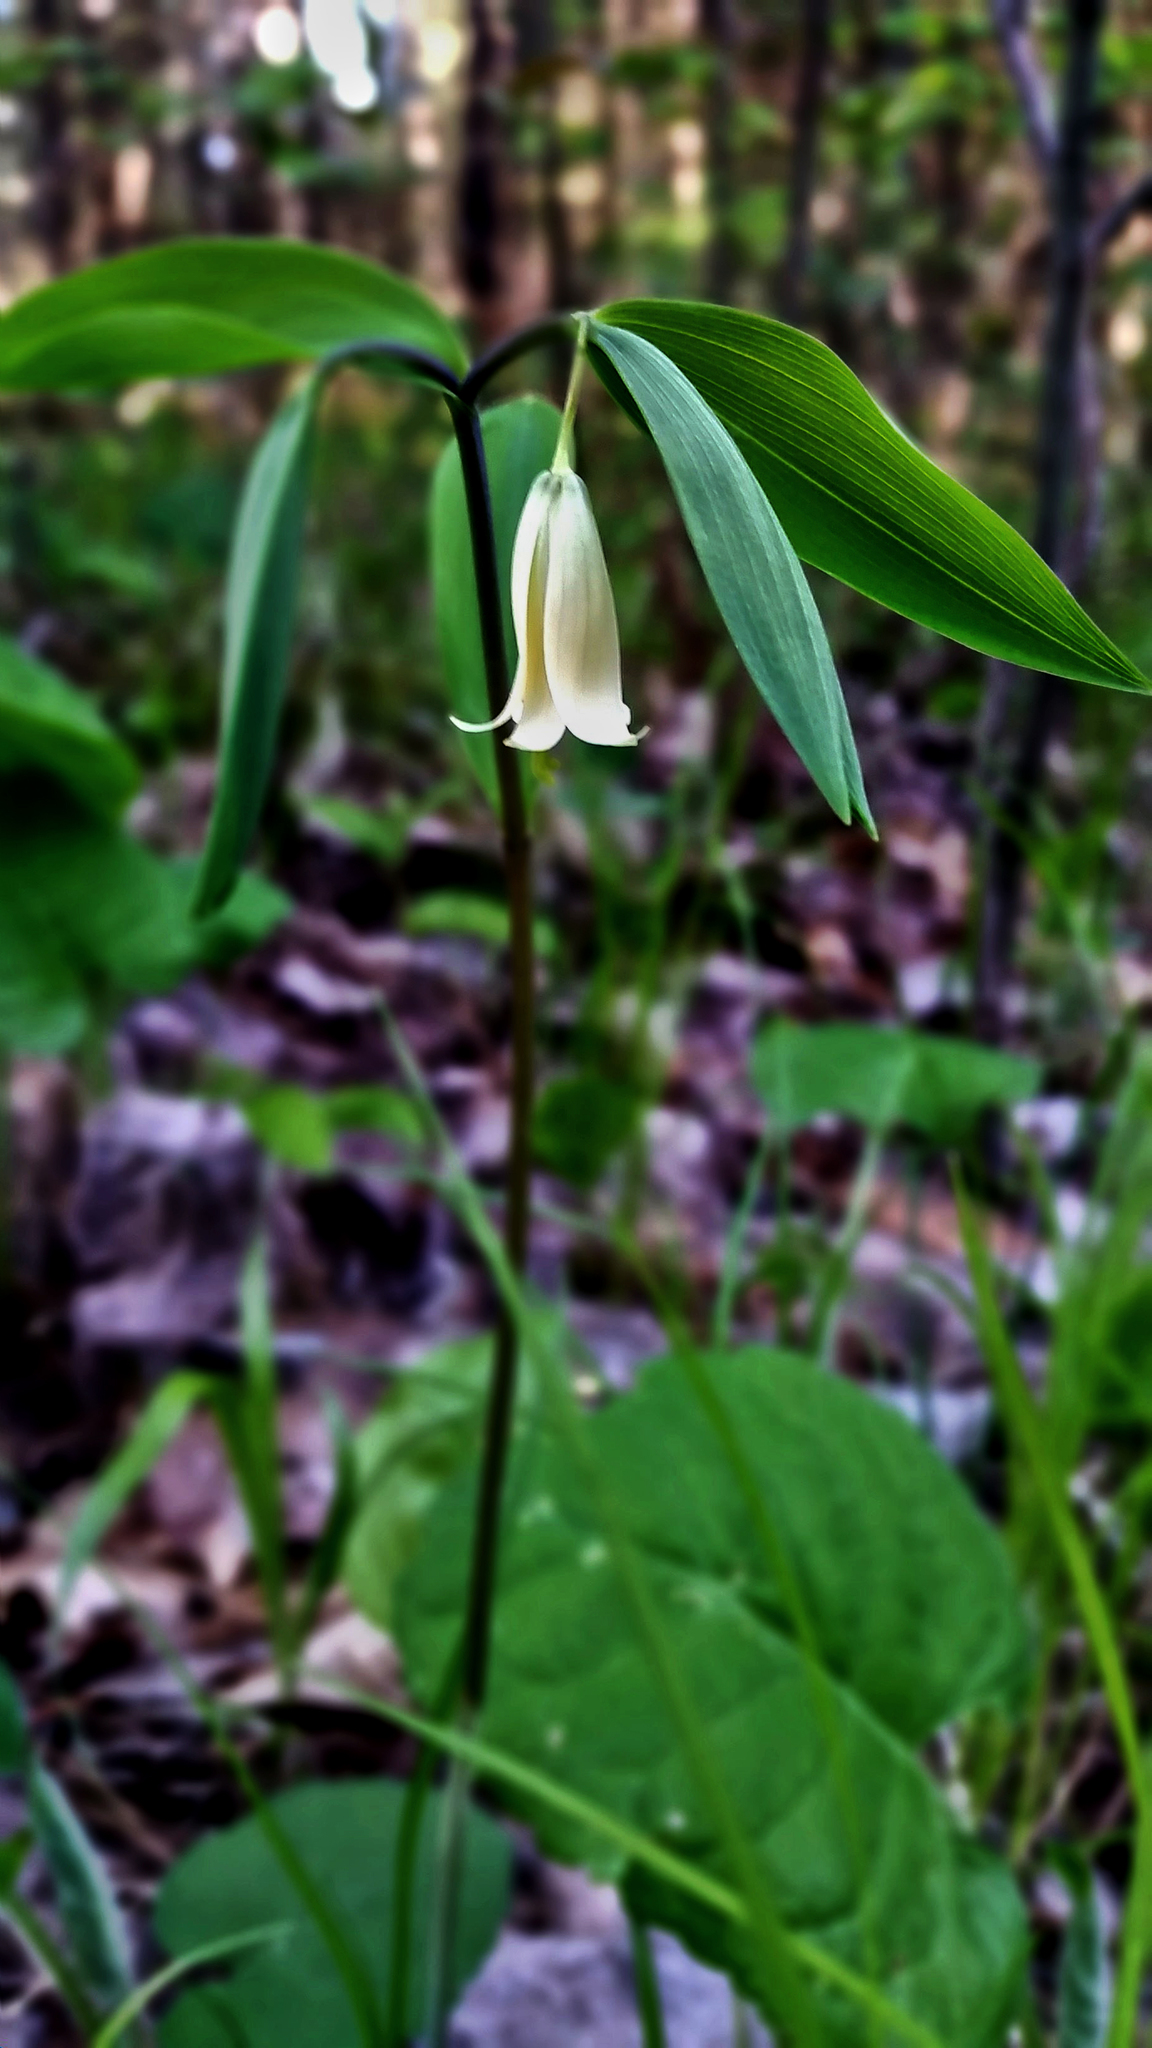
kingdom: Plantae
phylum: Tracheophyta
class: Liliopsida
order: Liliales
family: Colchicaceae
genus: Uvularia
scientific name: Uvularia sessilifolia
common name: Straw-lily
